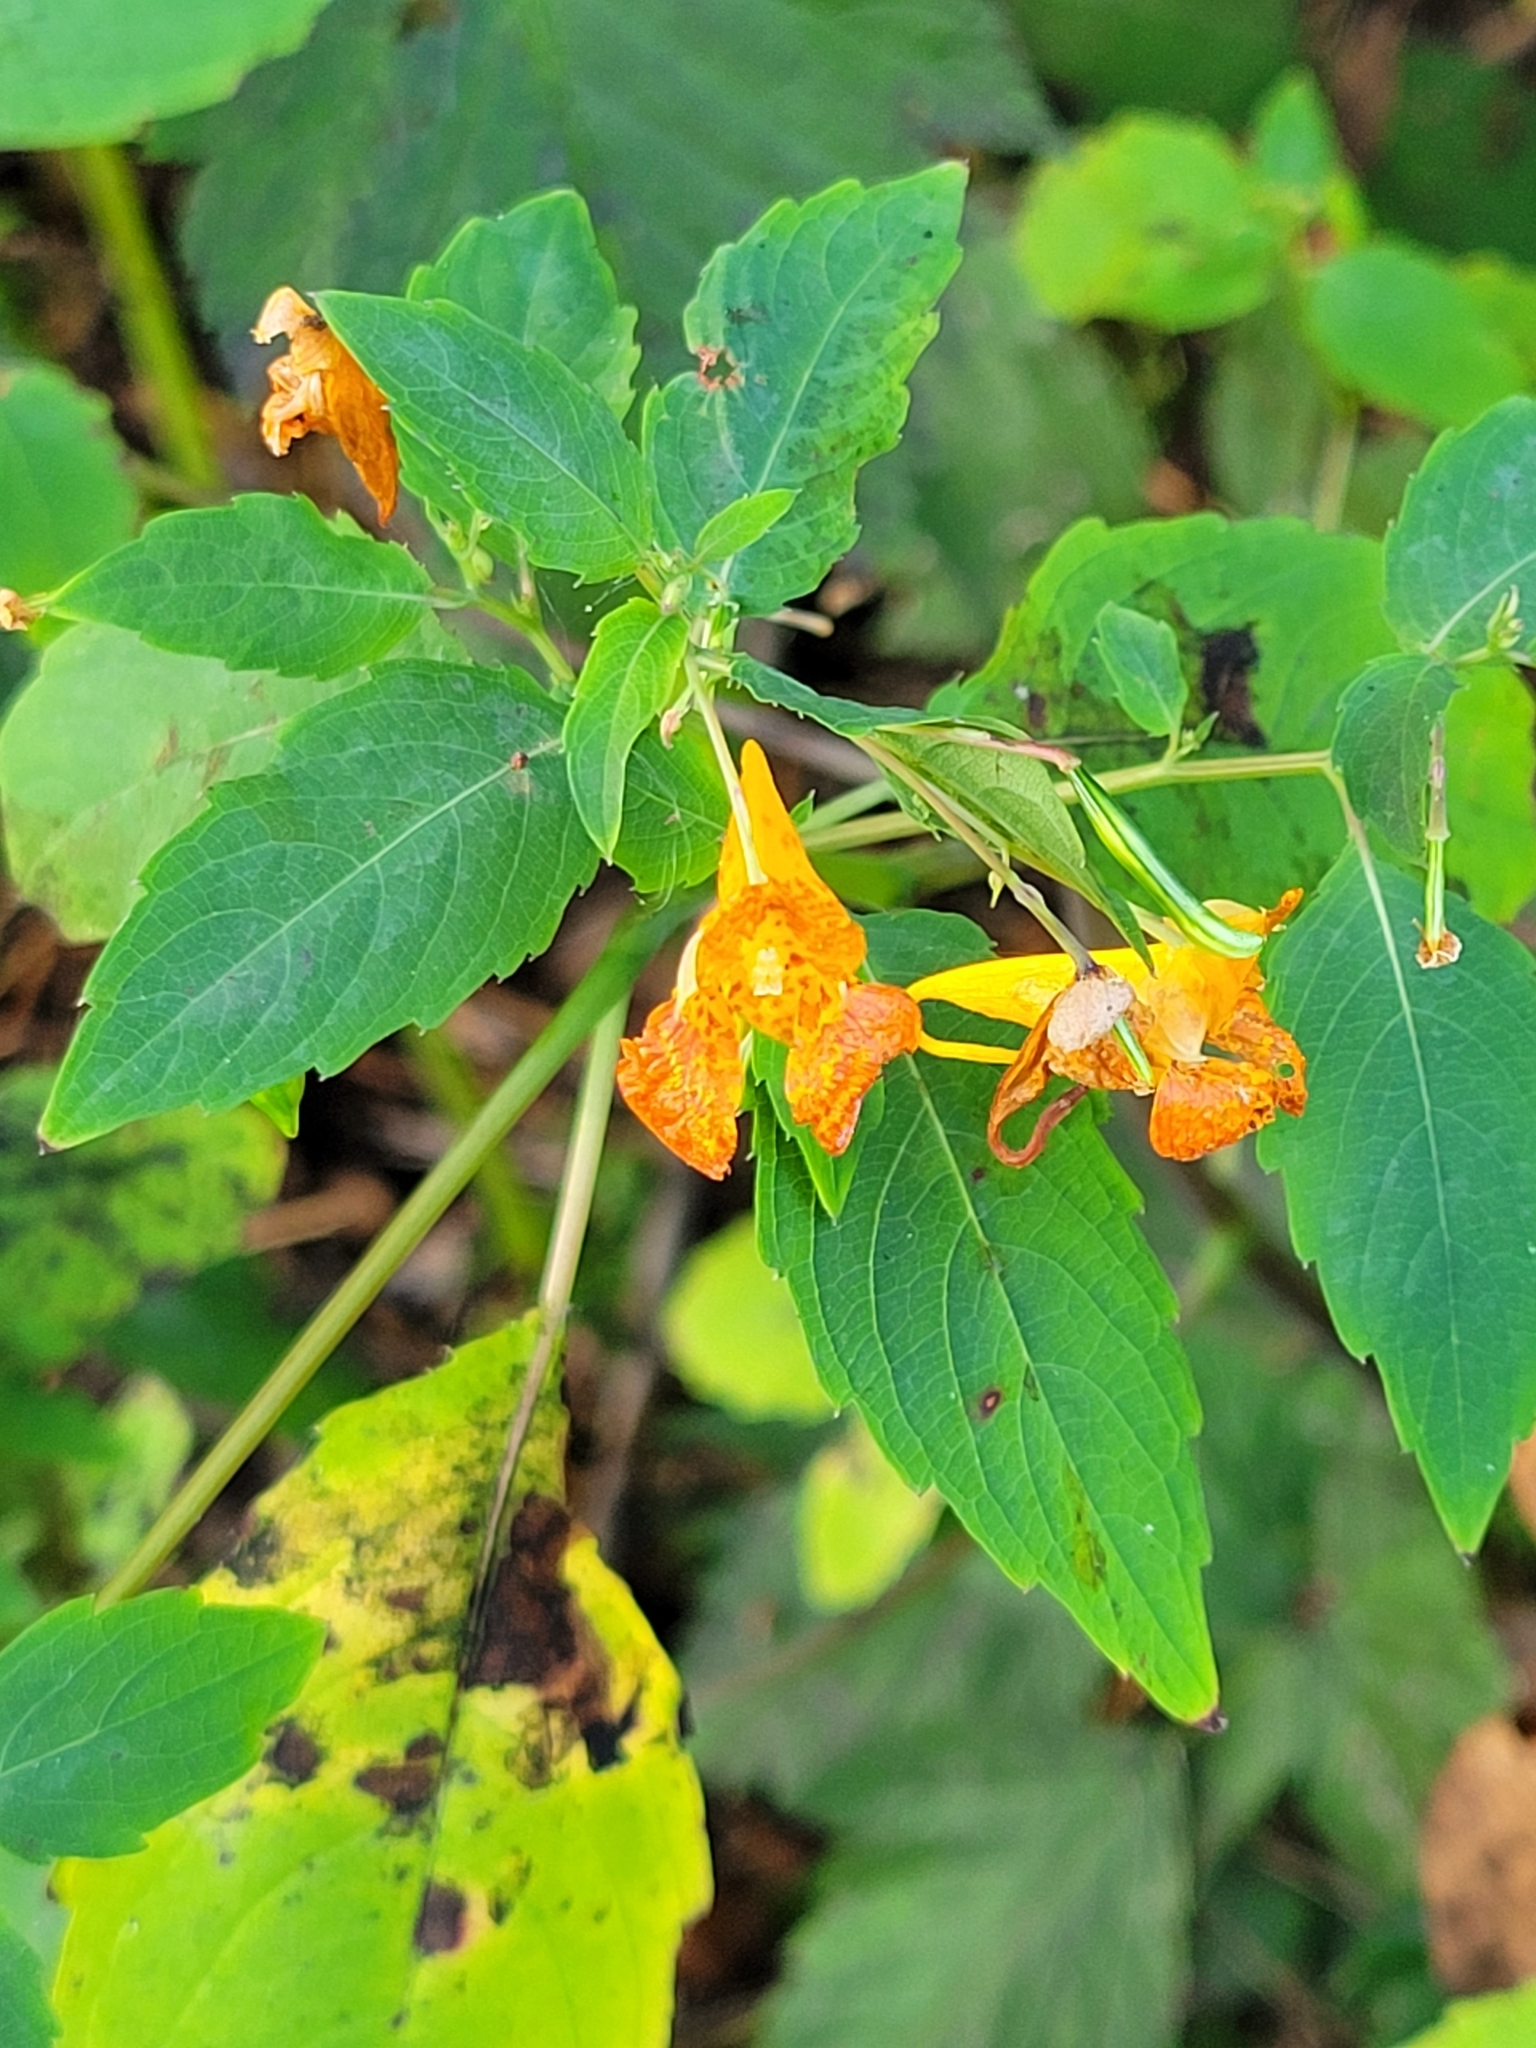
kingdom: Plantae
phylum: Tracheophyta
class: Magnoliopsida
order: Ericales
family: Balsaminaceae
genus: Impatiens
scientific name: Impatiens capensis
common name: Orange balsam
